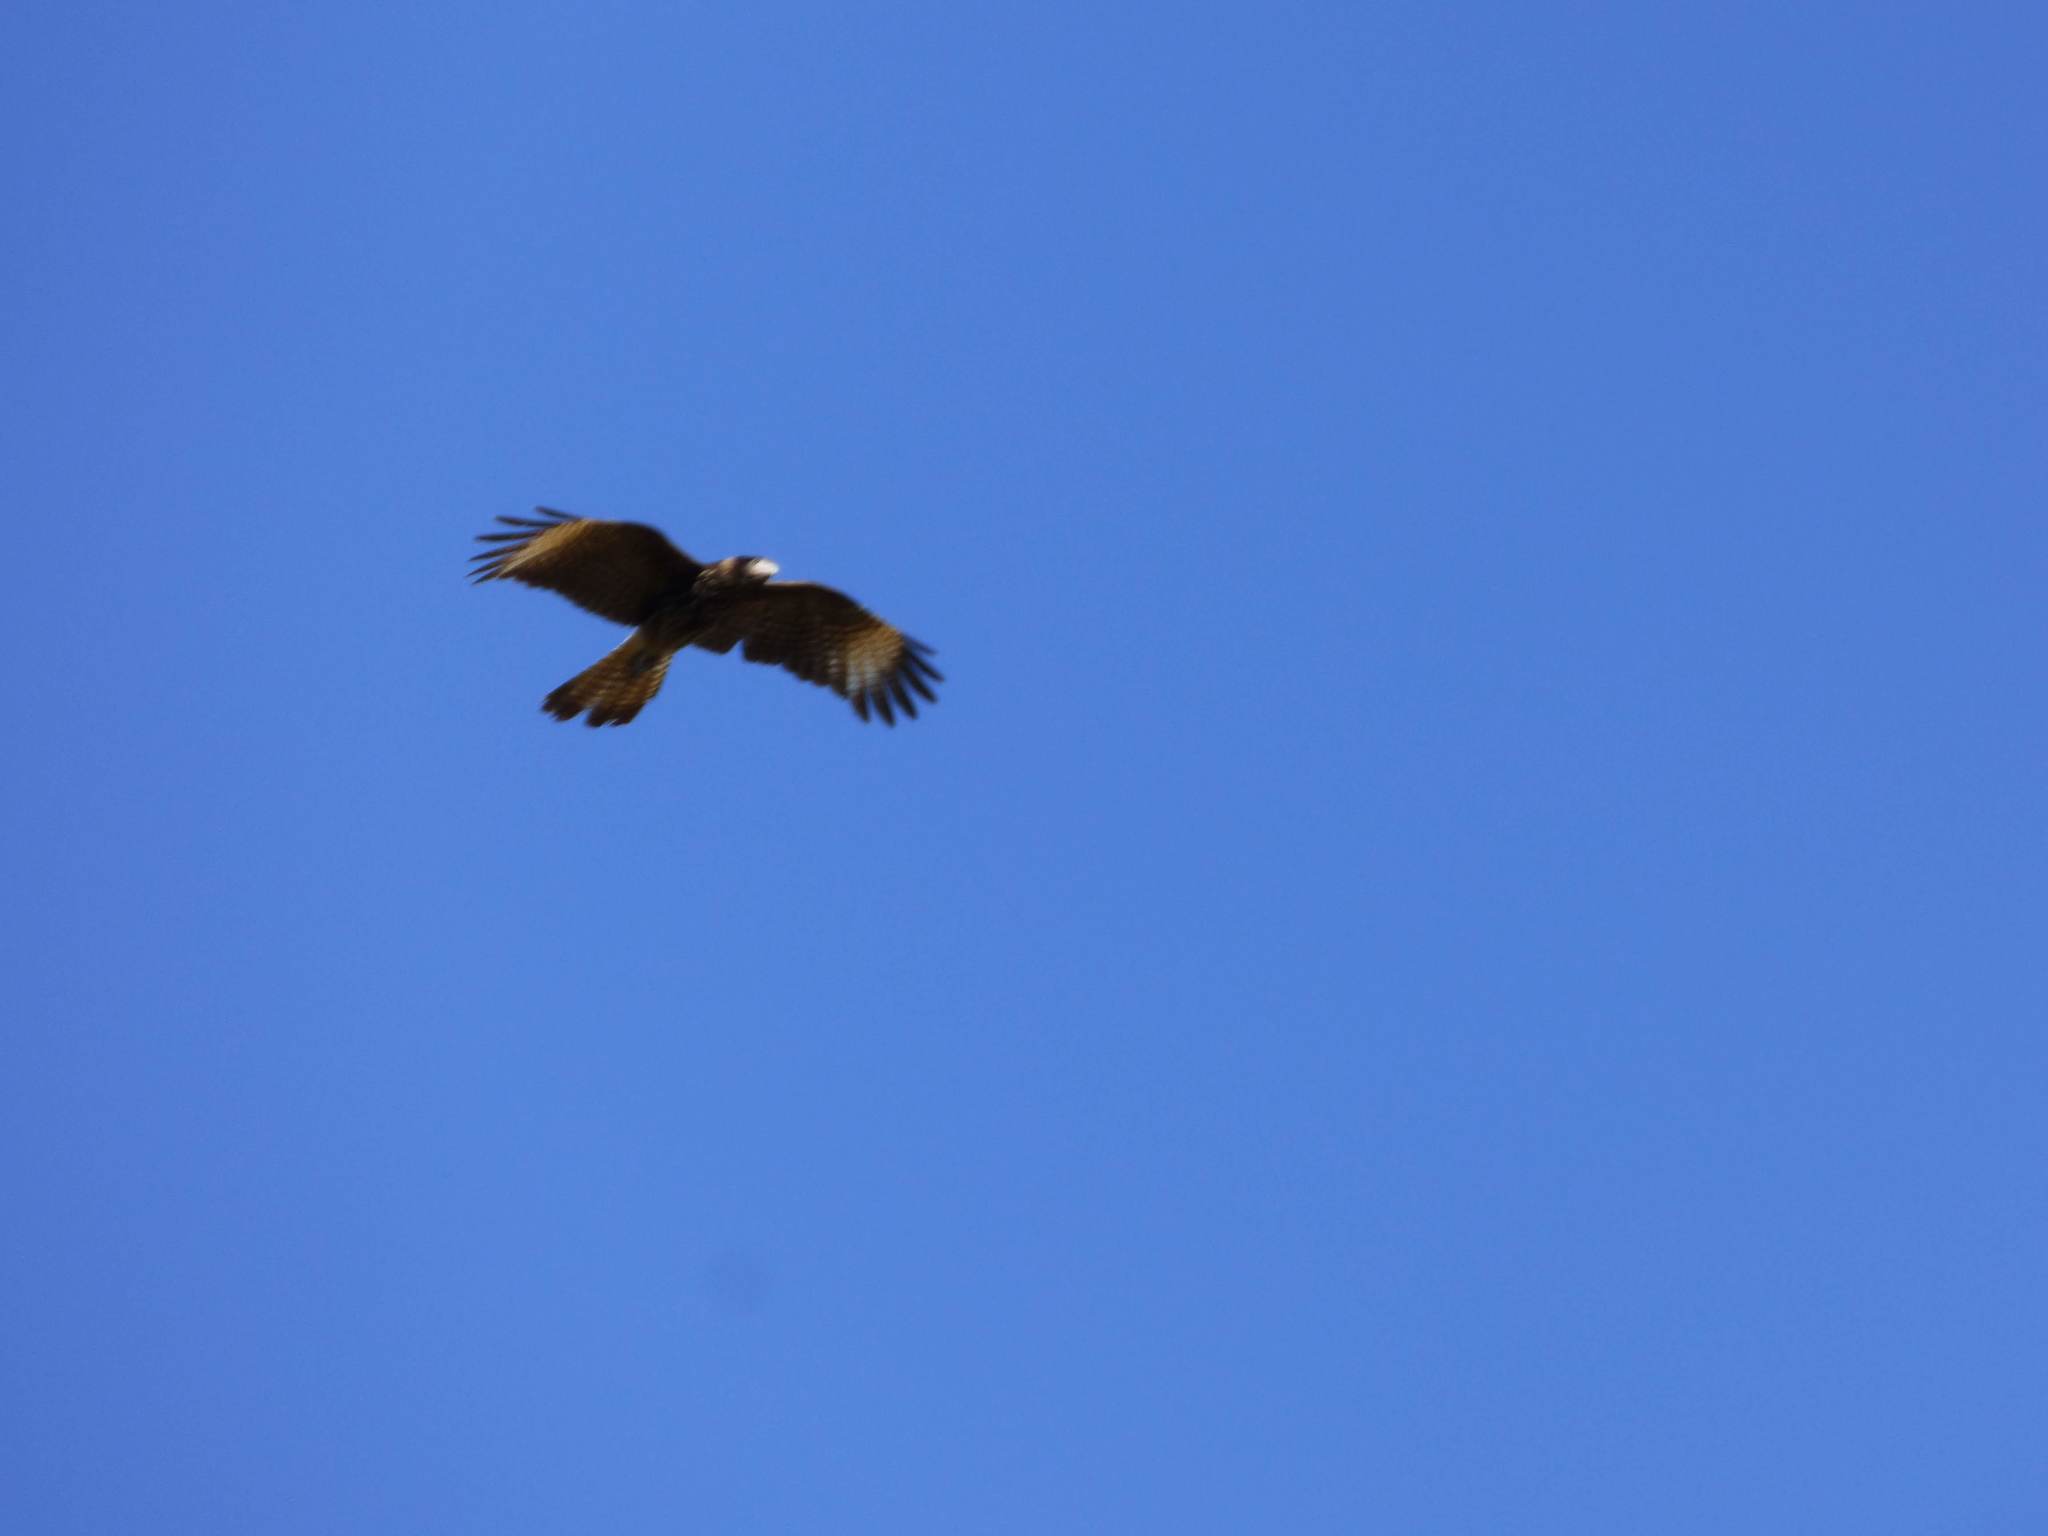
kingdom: Animalia
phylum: Chordata
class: Aves
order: Falconiformes
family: Falconidae
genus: Daptrius
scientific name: Daptrius
